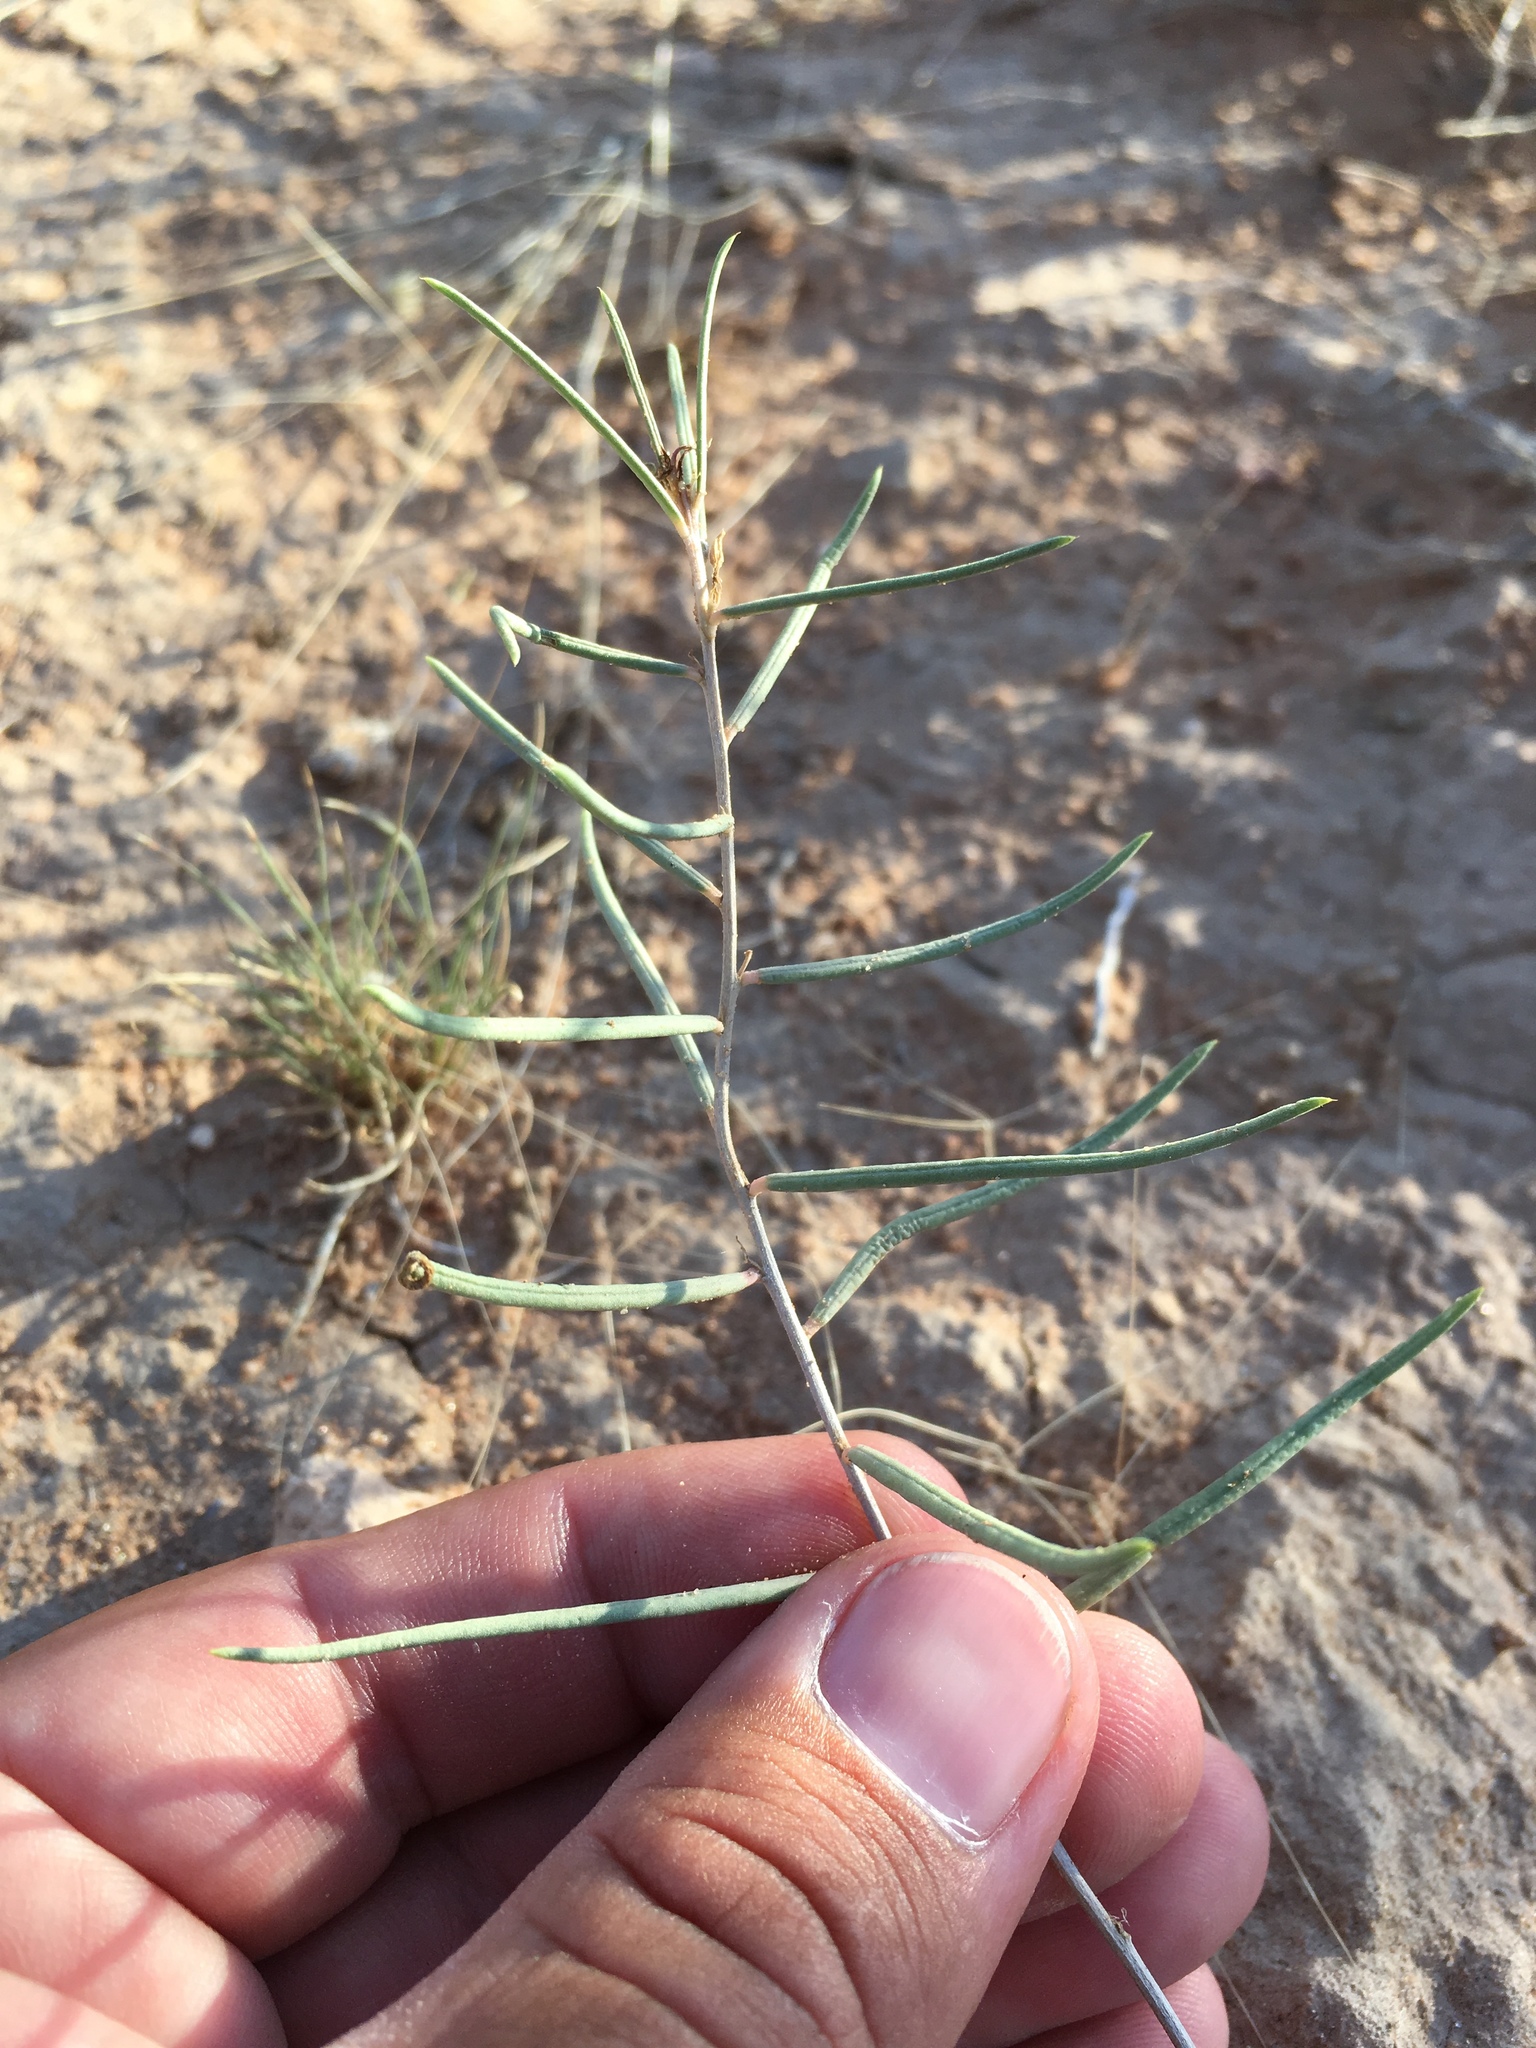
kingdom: Plantae
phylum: Tracheophyta
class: Magnoliopsida
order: Caryophyllales
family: Talinaceae
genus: Talinum
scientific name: Talinum polygaloides
